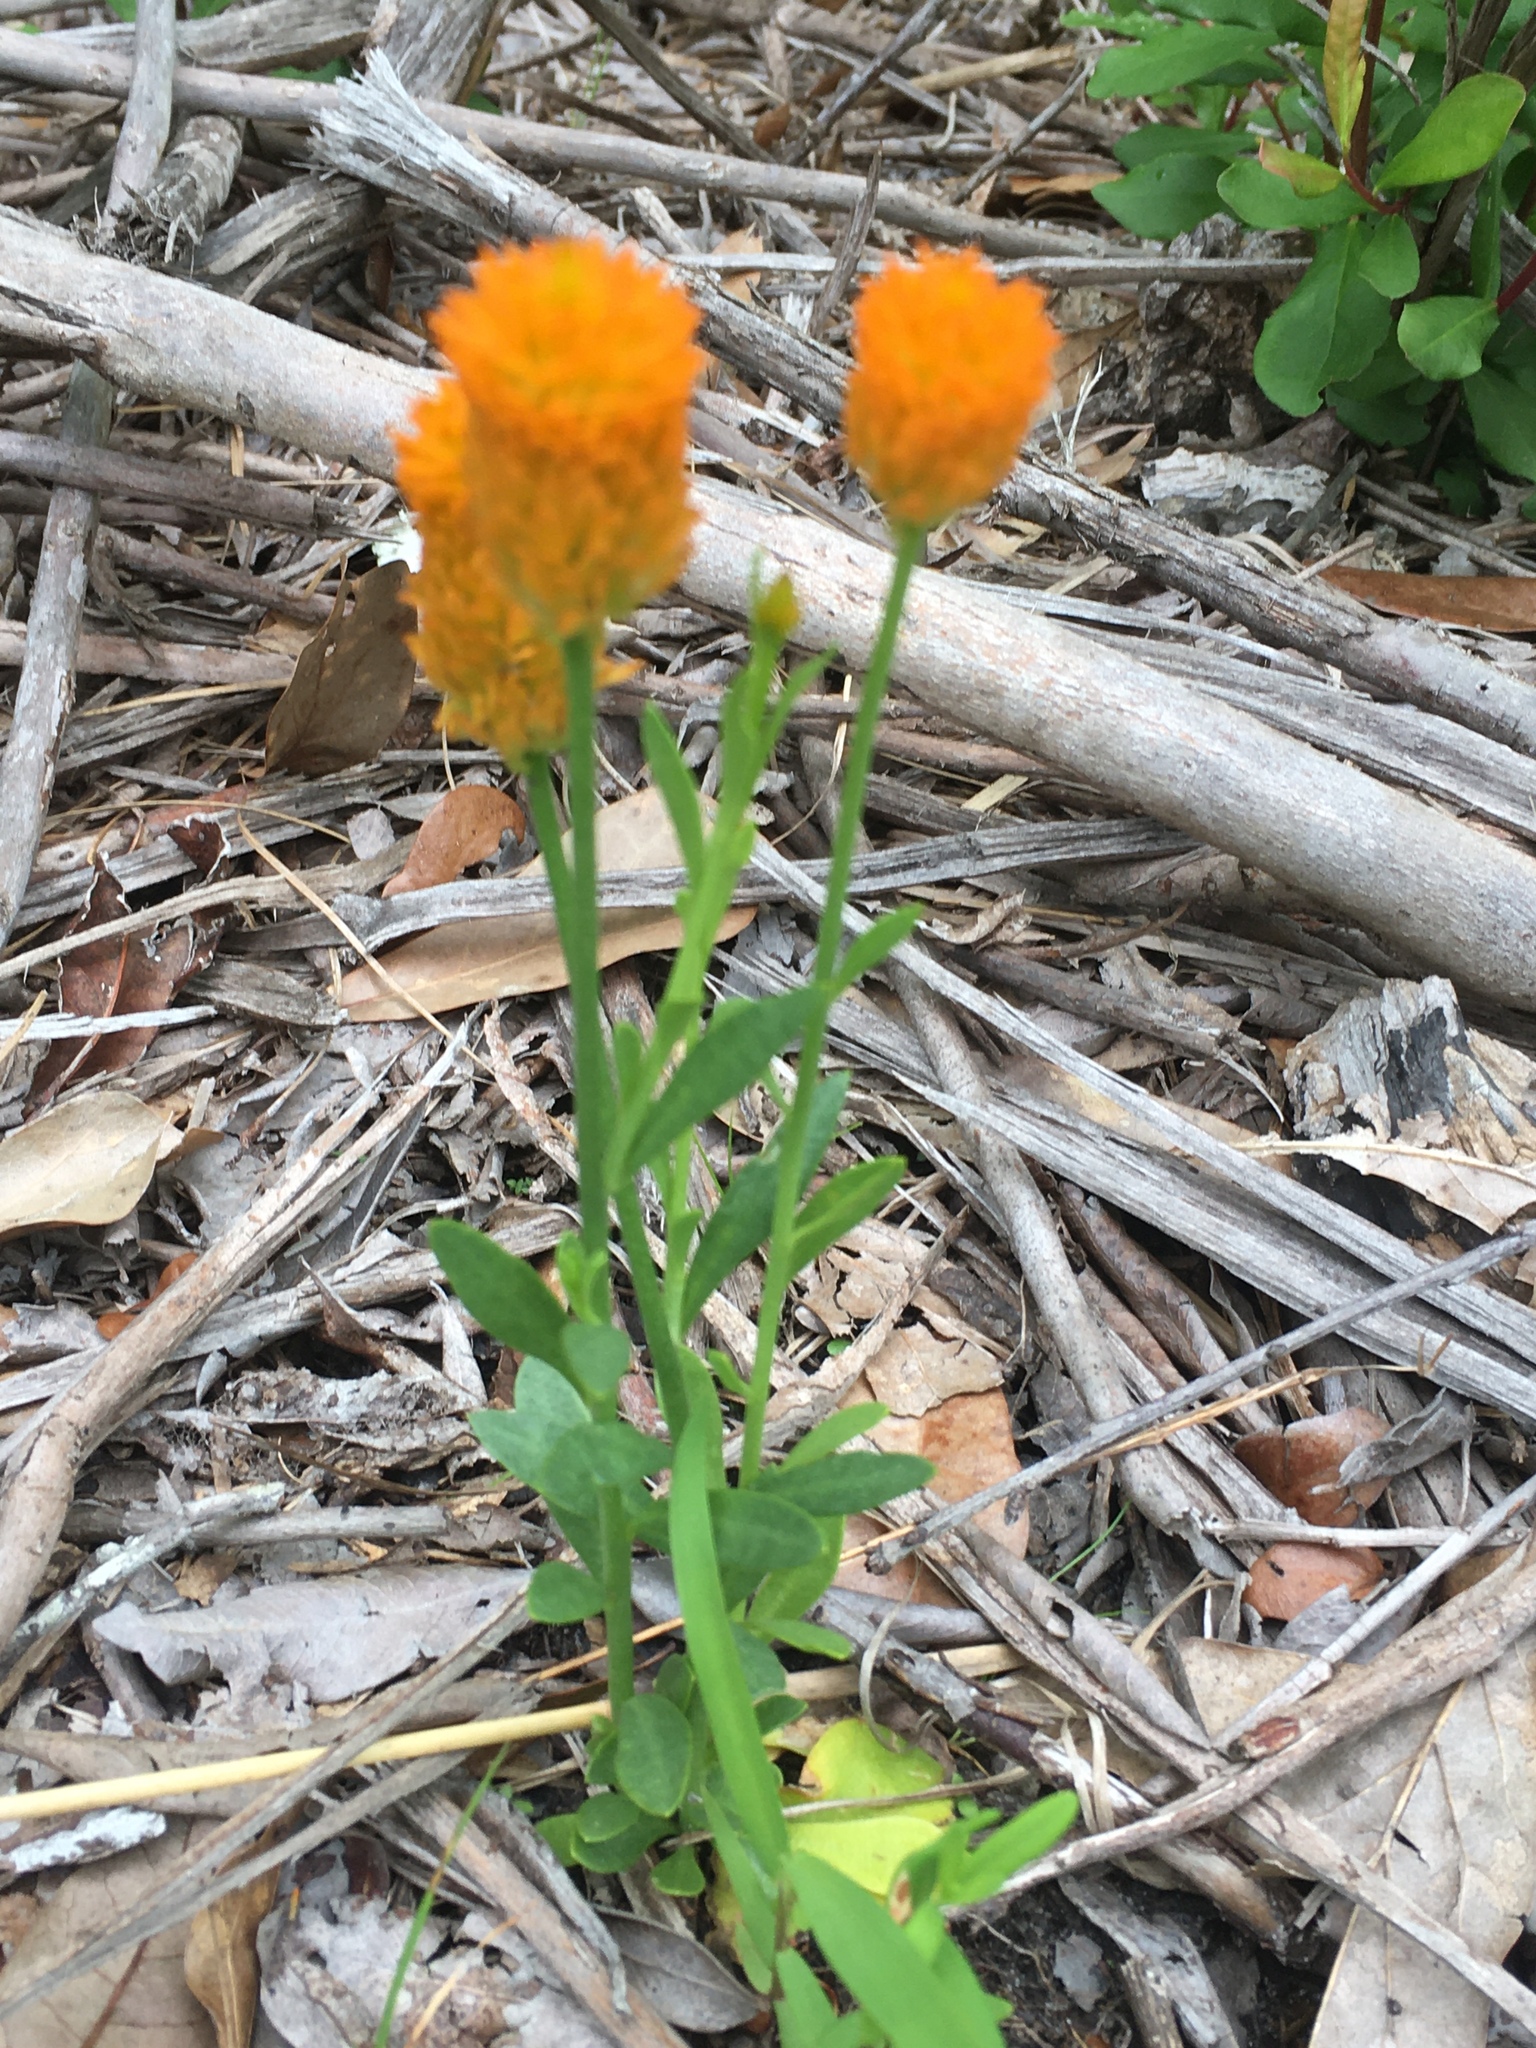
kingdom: Plantae
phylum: Tracheophyta
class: Magnoliopsida
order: Fabales
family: Polygalaceae
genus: Polygala
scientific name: Polygala lutea
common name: Orange milkwort
